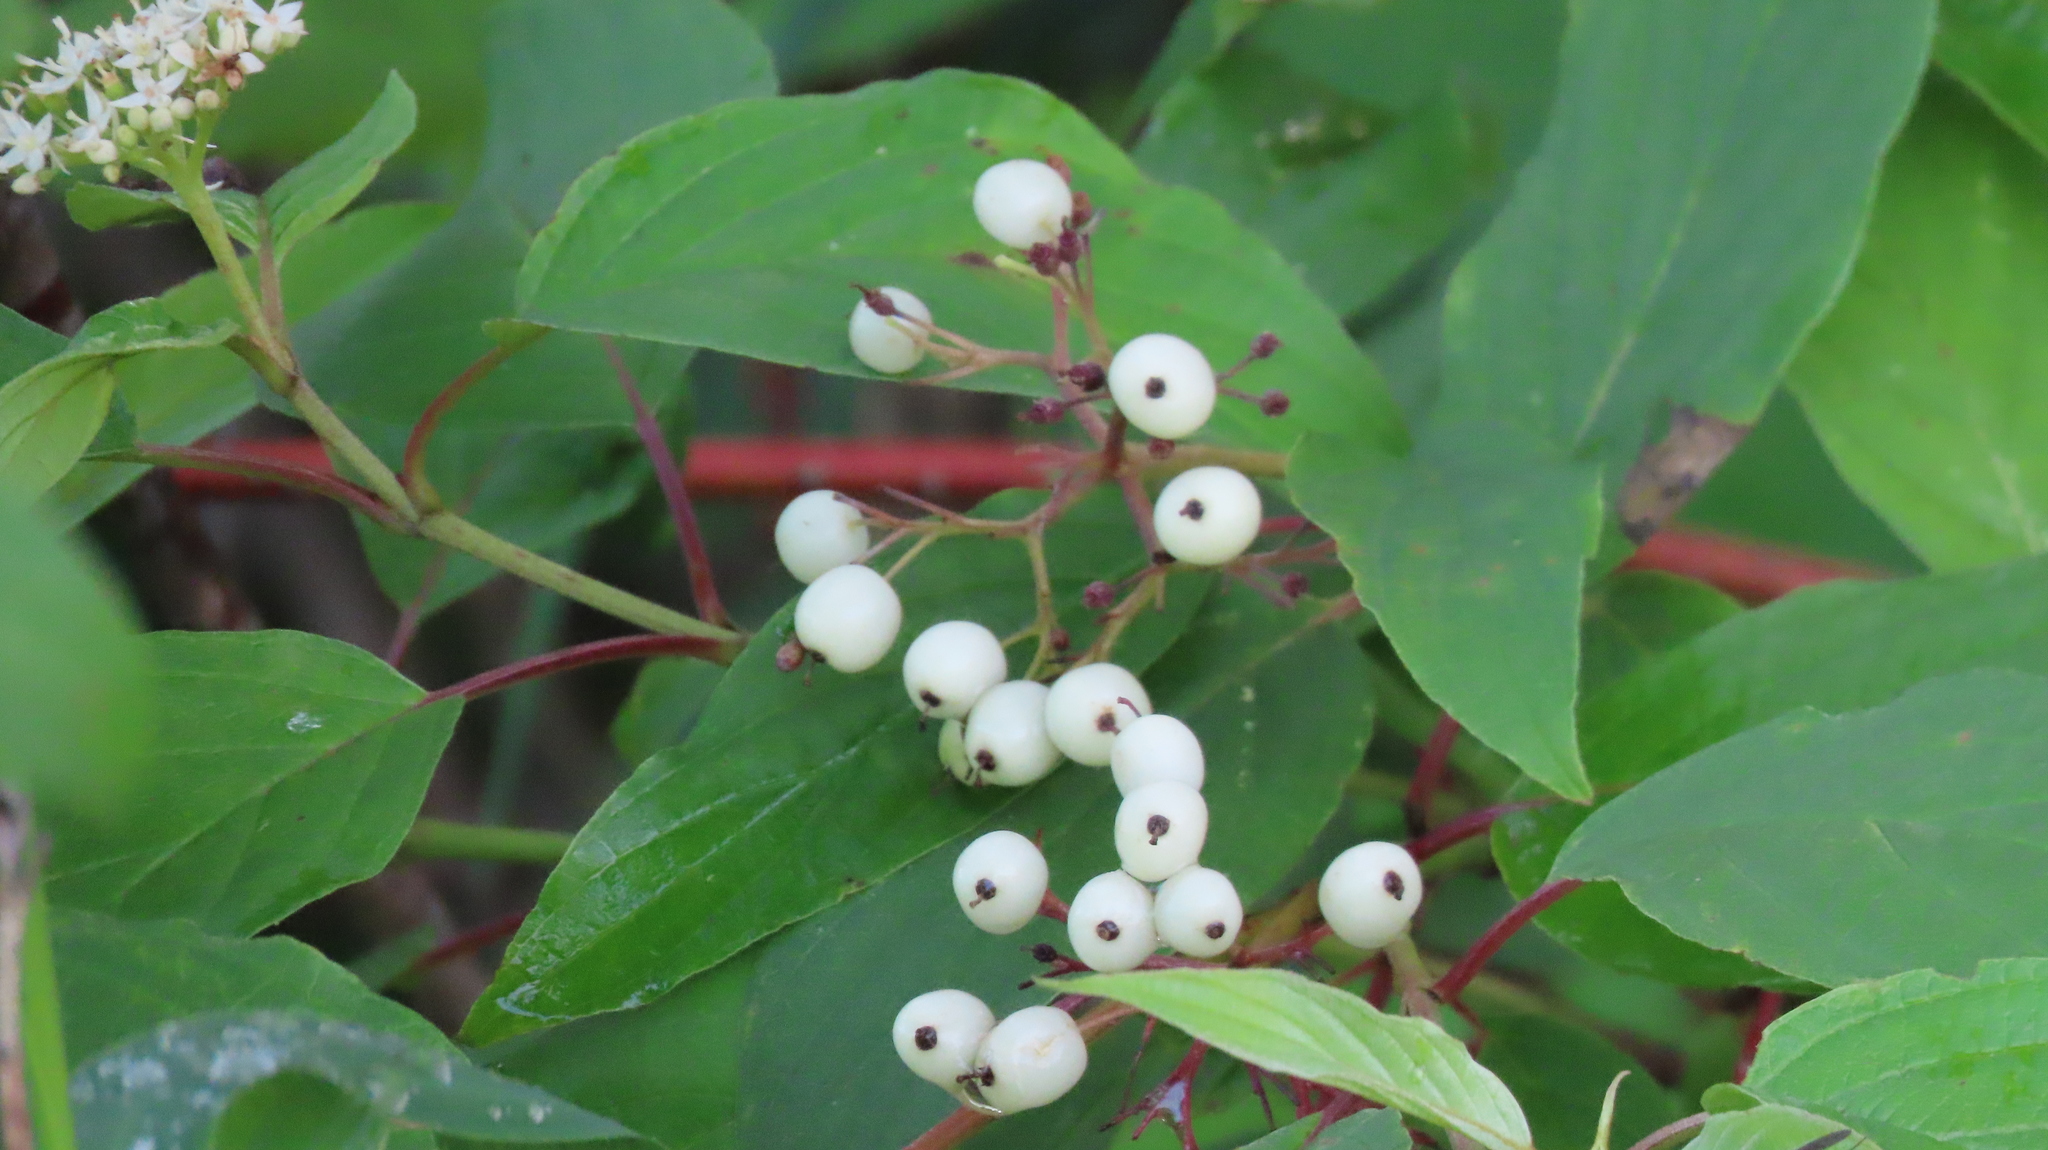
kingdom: Plantae
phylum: Tracheophyta
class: Magnoliopsida
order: Cornales
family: Cornaceae
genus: Cornus
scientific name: Cornus sericea
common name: Red-osier dogwood
